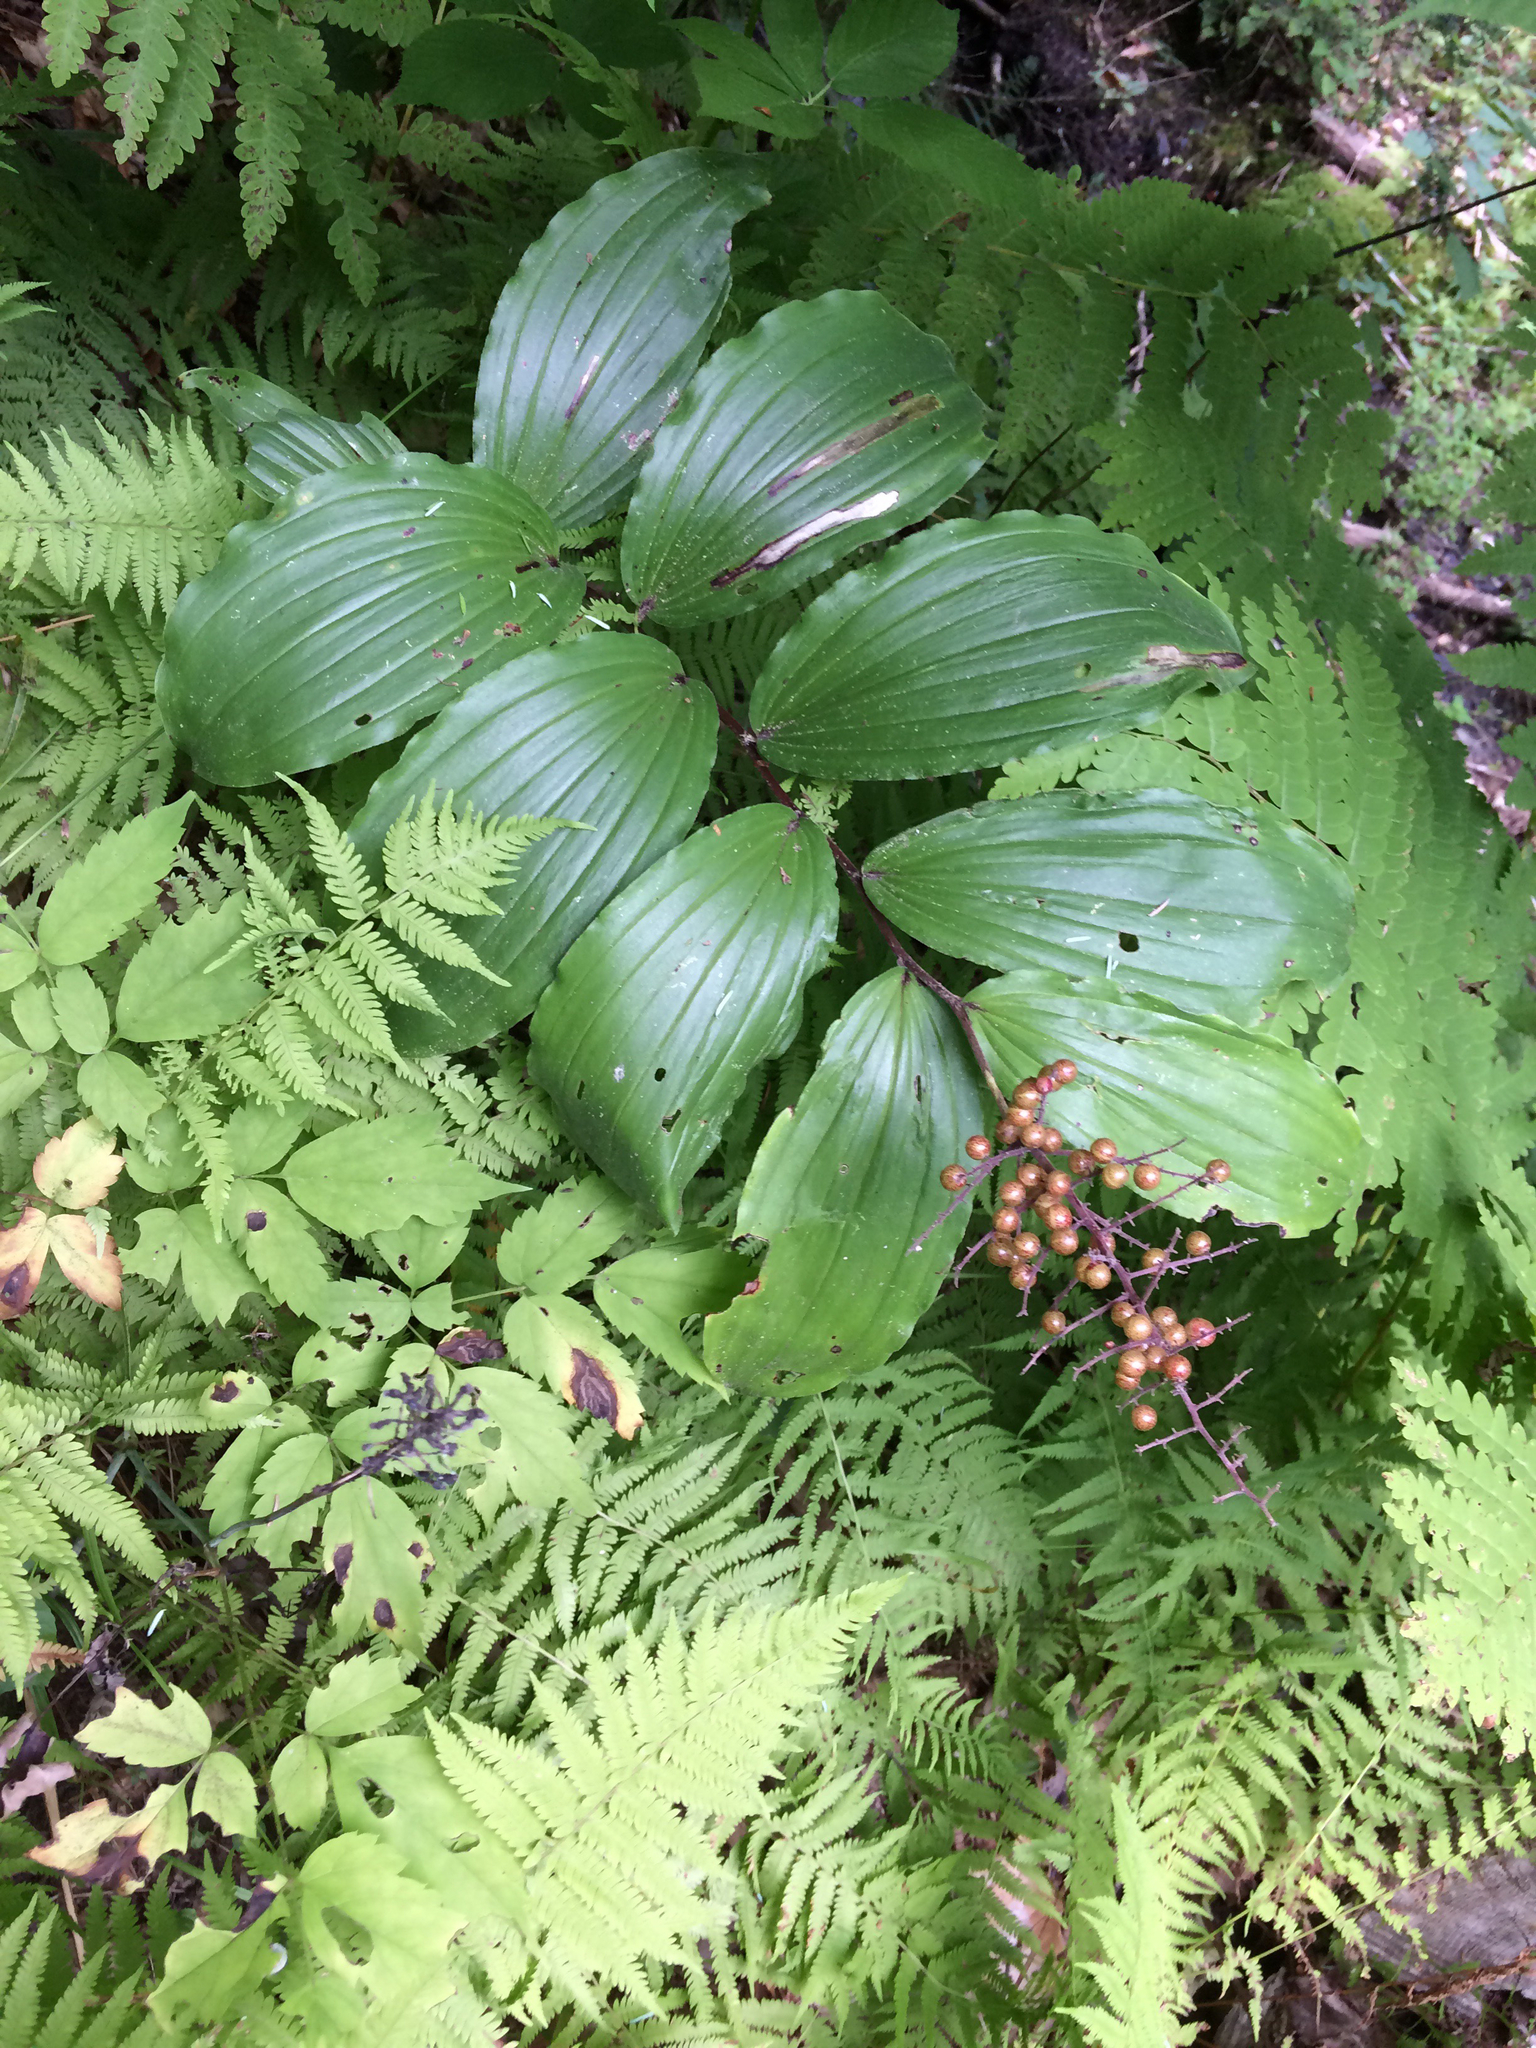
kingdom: Plantae
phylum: Tracheophyta
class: Liliopsida
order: Asparagales
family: Asparagaceae
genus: Maianthemum
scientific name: Maianthemum racemosum
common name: False spikenard
